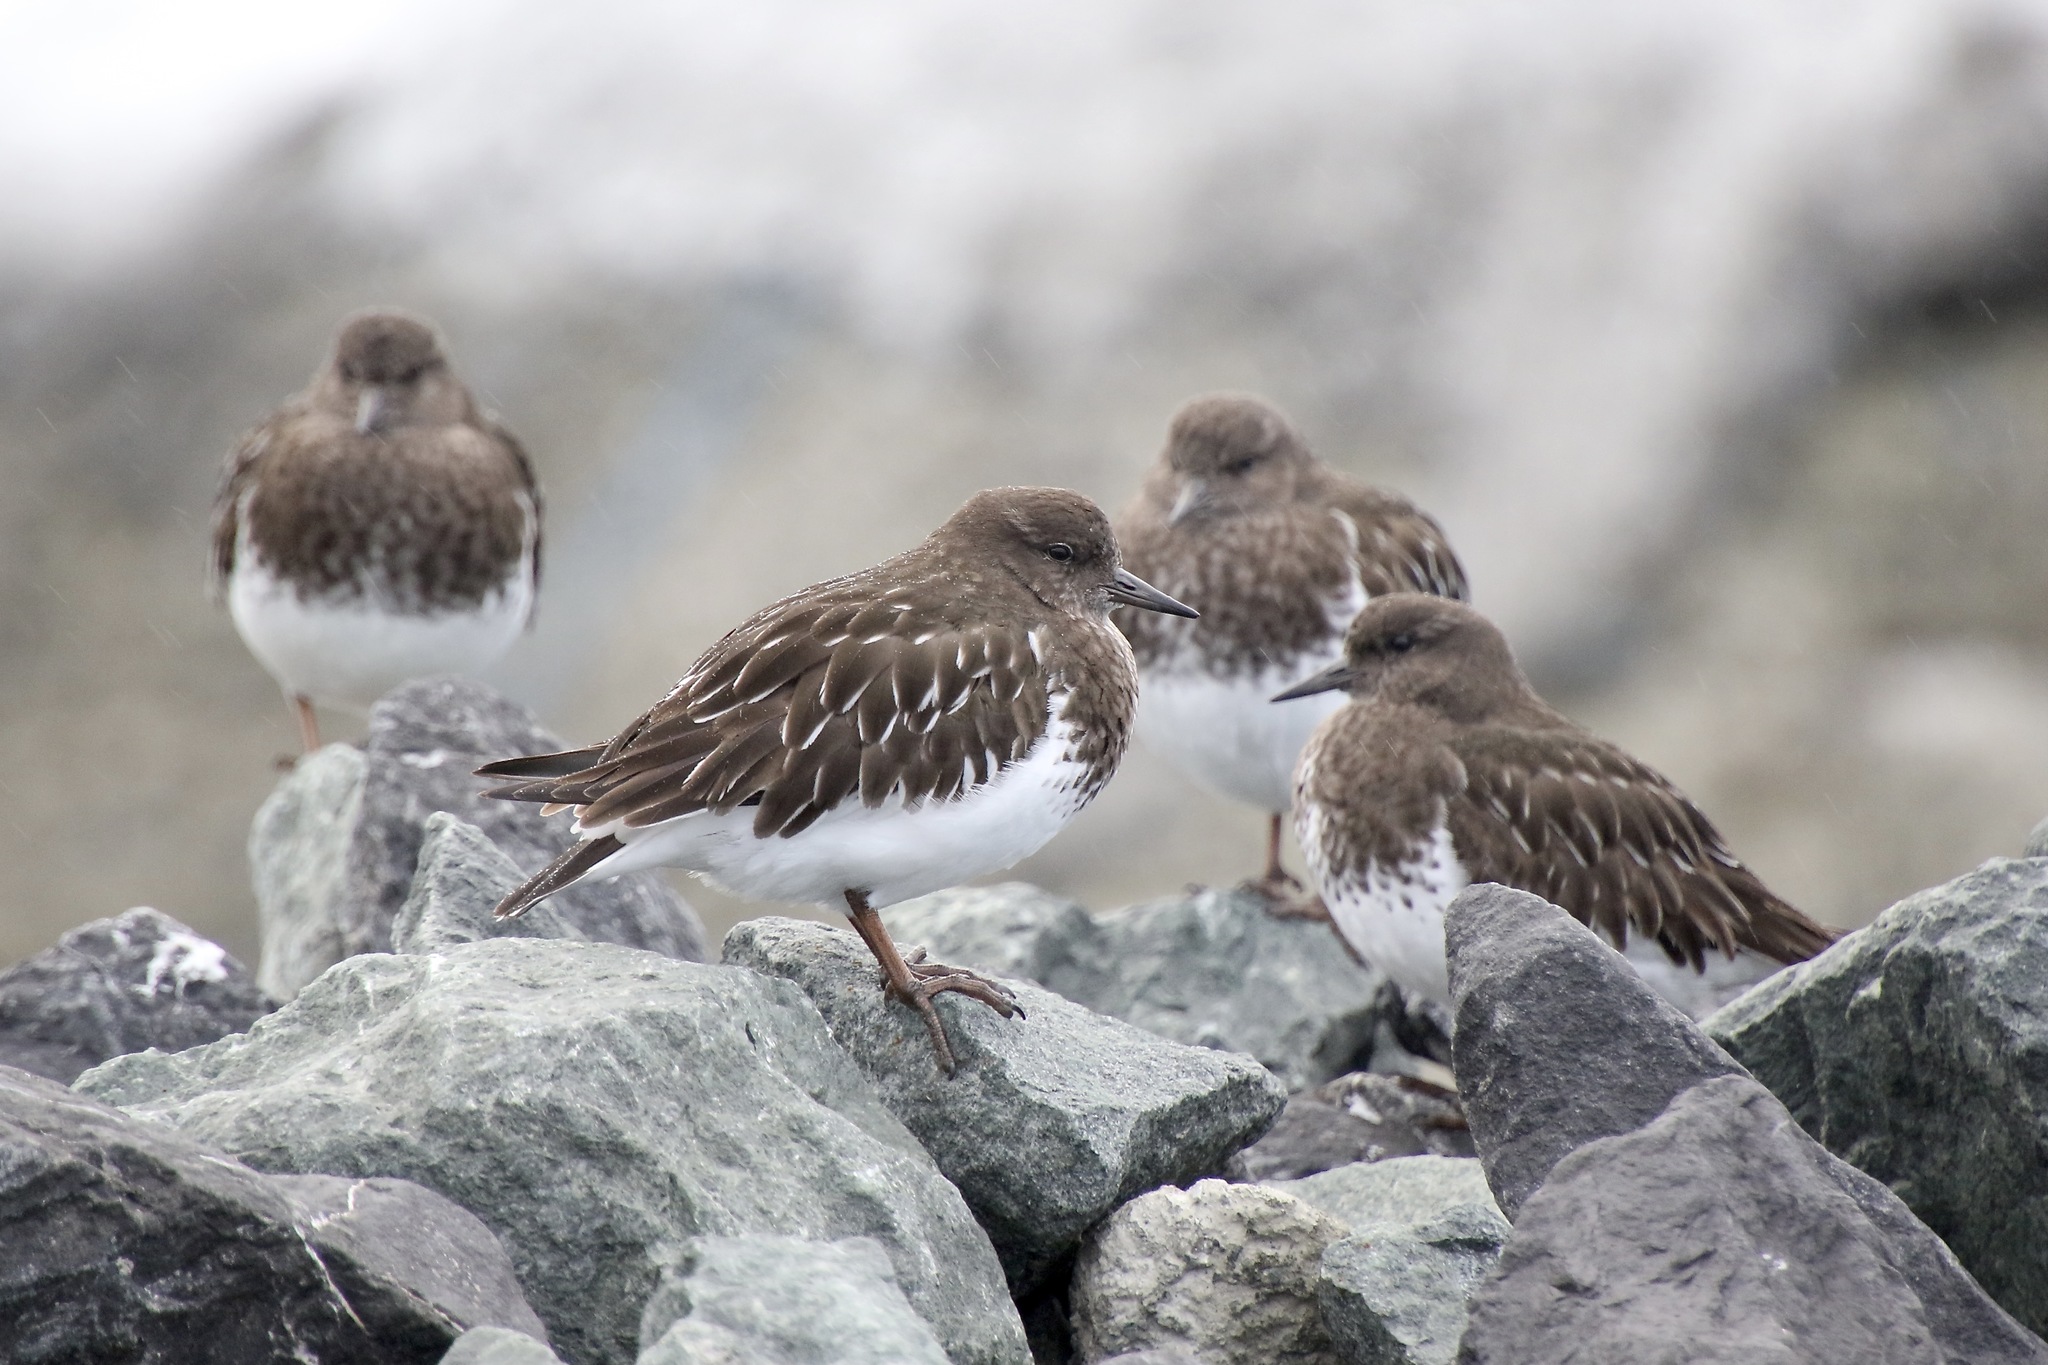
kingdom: Animalia
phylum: Chordata
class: Aves
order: Charadriiformes
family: Scolopacidae
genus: Arenaria
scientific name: Arenaria melanocephala
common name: Black turnstone
